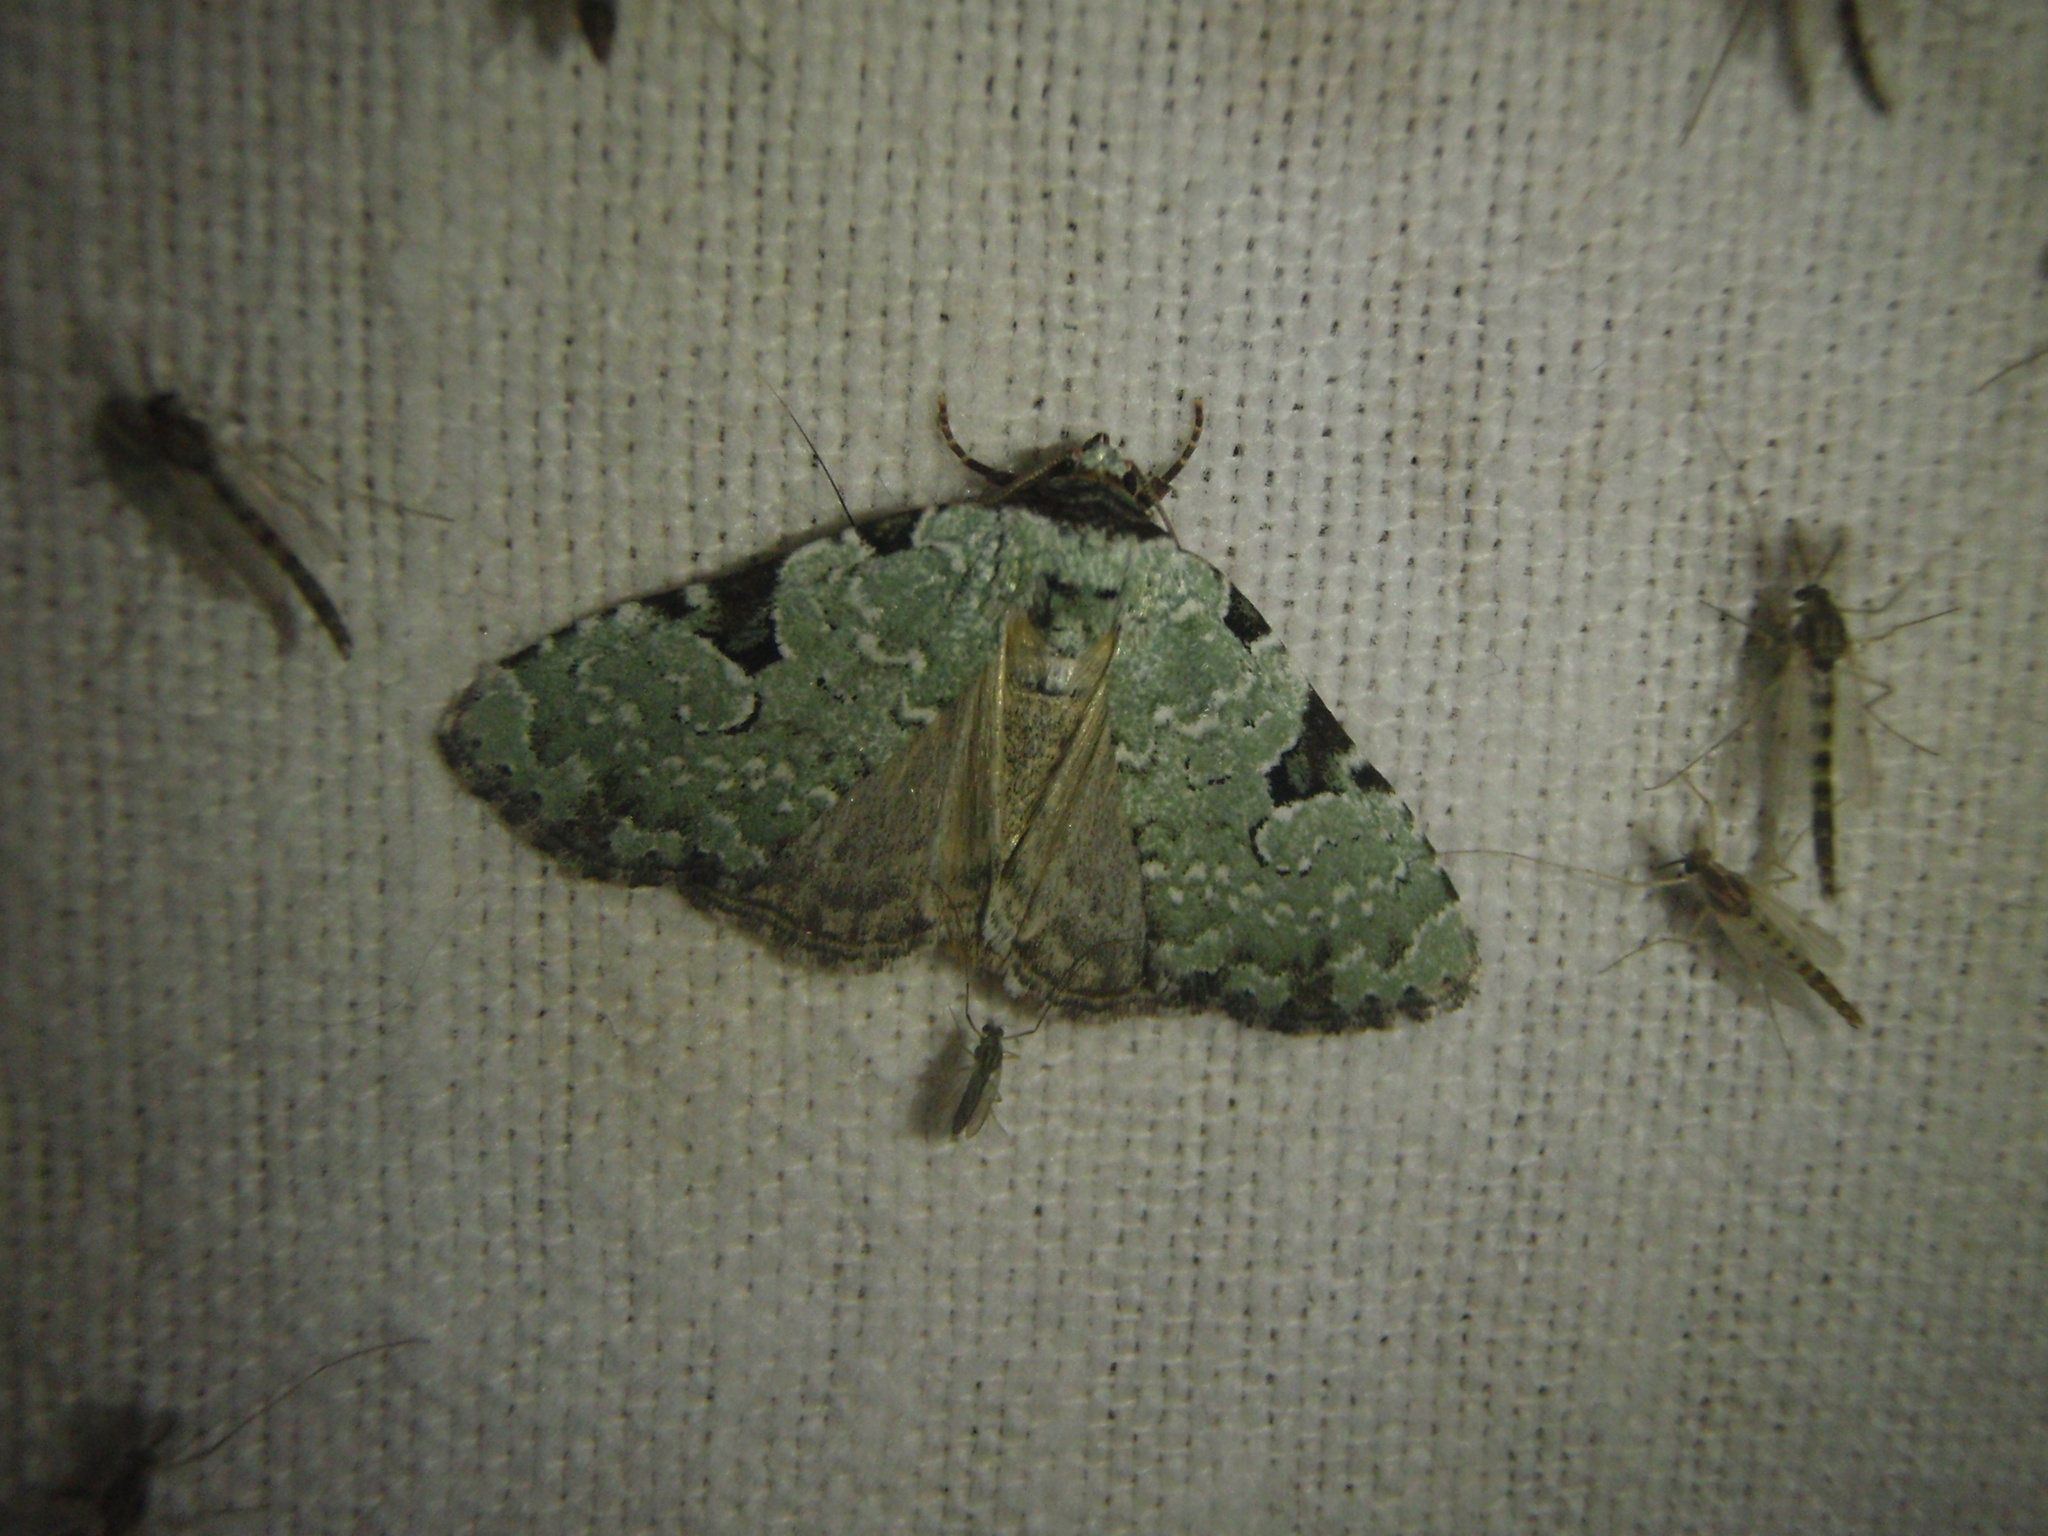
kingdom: Animalia
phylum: Arthropoda
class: Insecta
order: Lepidoptera
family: Noctuidae
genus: Leuconycta
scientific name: Leuconycta diphteroides
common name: Green leuconycta moth
